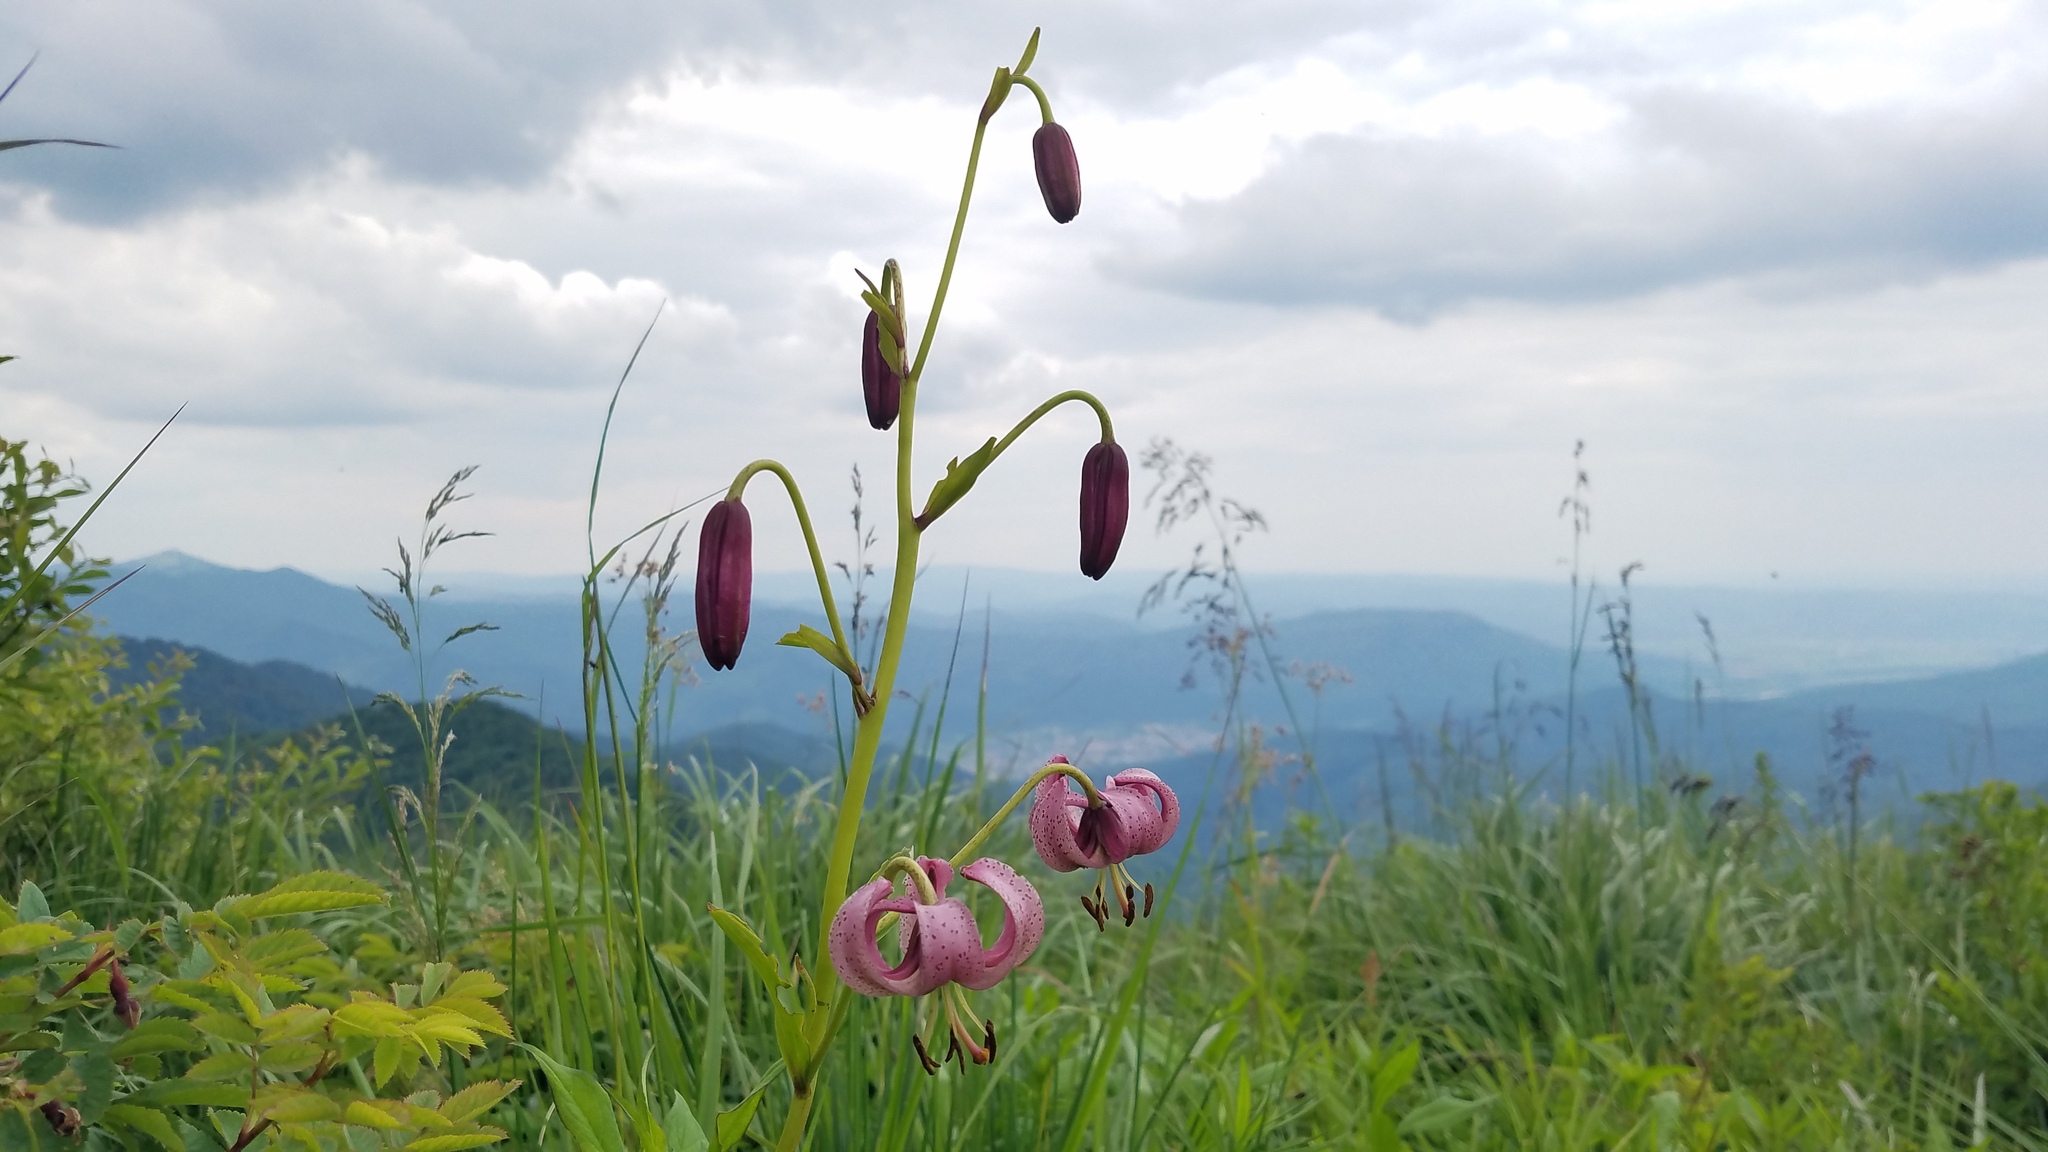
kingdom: Plantae
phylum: Tracheophyta
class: Liliopsida
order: Liliales
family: Liliaceae
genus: Lilium
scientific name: Lilium martagon
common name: Martagon lily
